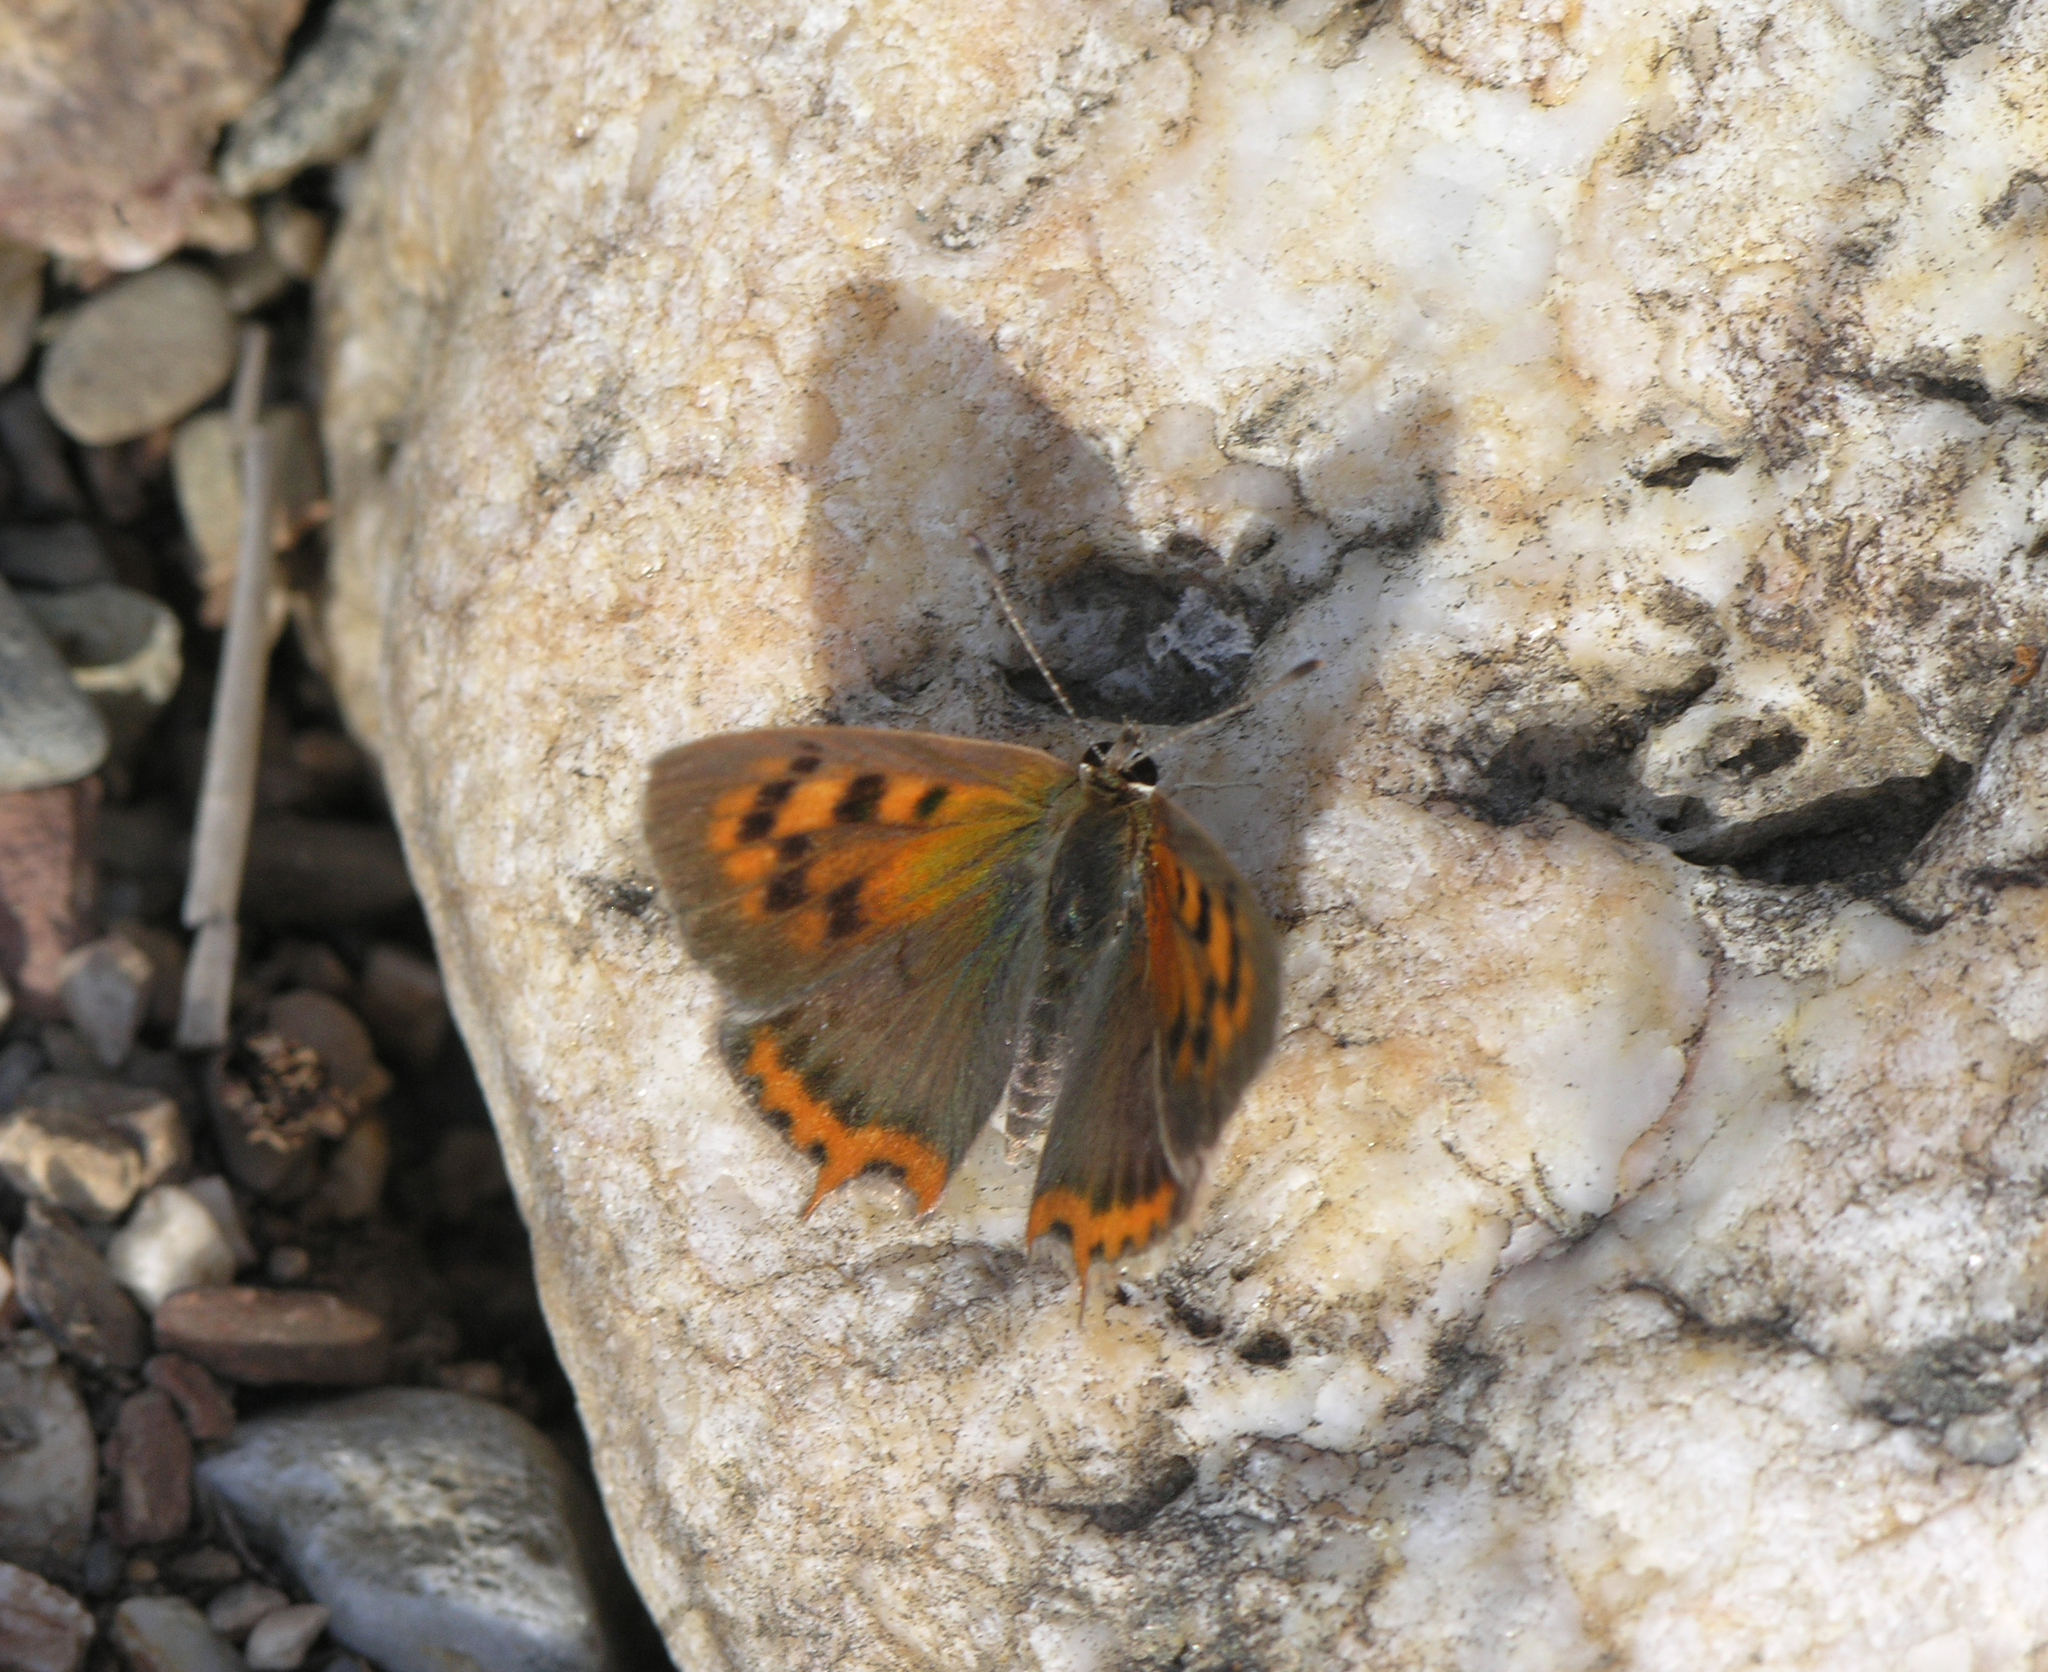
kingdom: Animalia
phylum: Arthropoda
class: Insecta
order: Lepidoptera
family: Lycaenidae
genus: Lycaena
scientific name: Lycaena phlaeas
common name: Small copper
